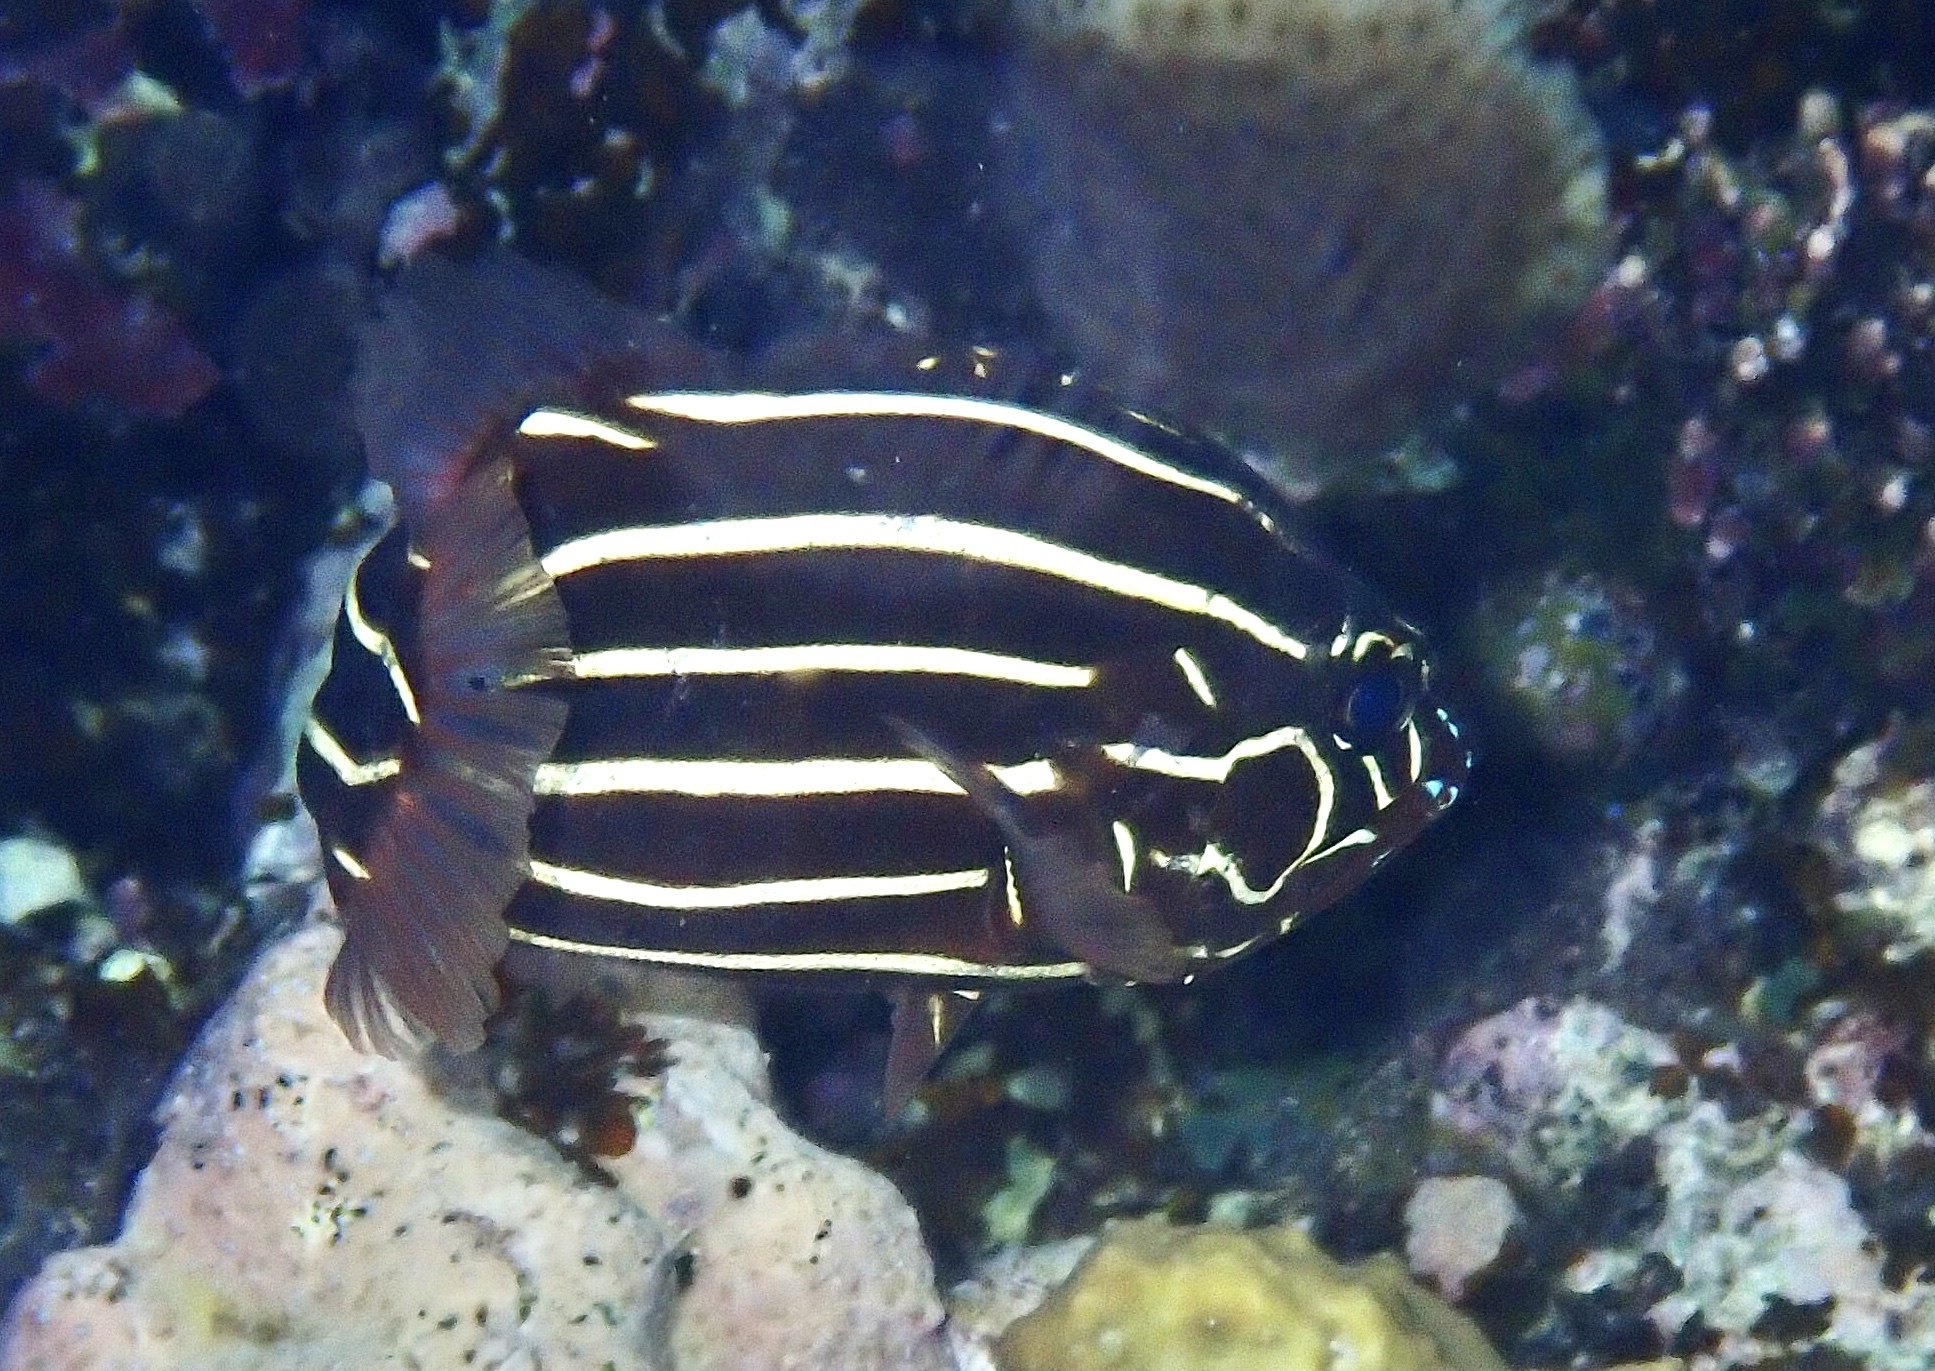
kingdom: Animalia
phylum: Chordata
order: Perciformes
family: Serranidae
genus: Grammistes
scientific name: Grammistes sexlineatus
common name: Sixline soapfish
